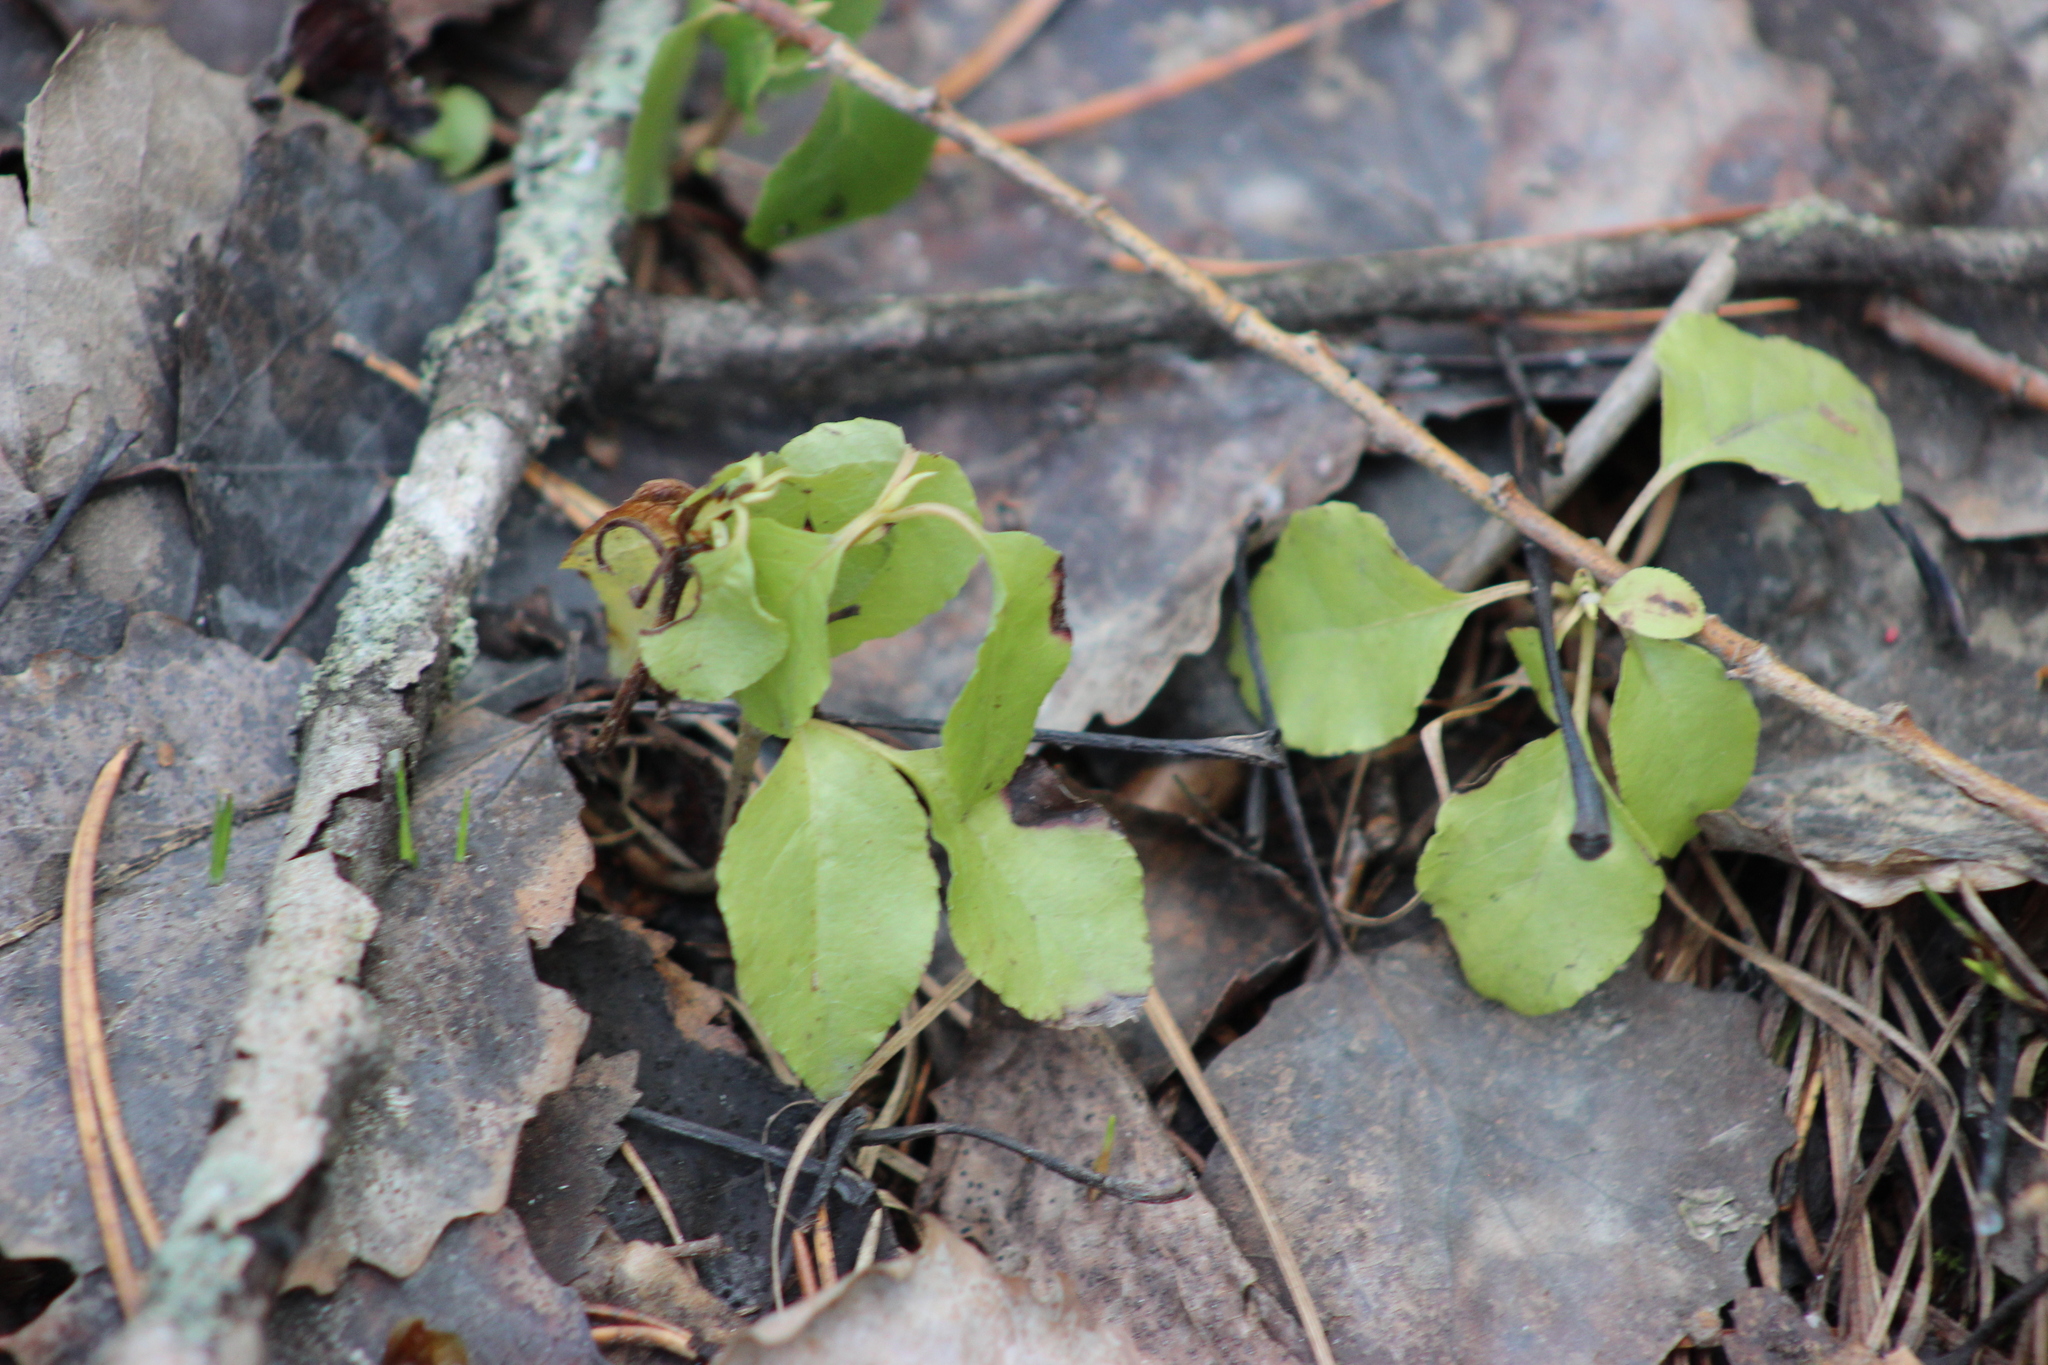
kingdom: Plantae
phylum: Tracheophyta
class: Magnoliopsida
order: Ericales
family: Ericaceae
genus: Orthilia
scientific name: Orthilia secunda
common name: One-sided orthilia
